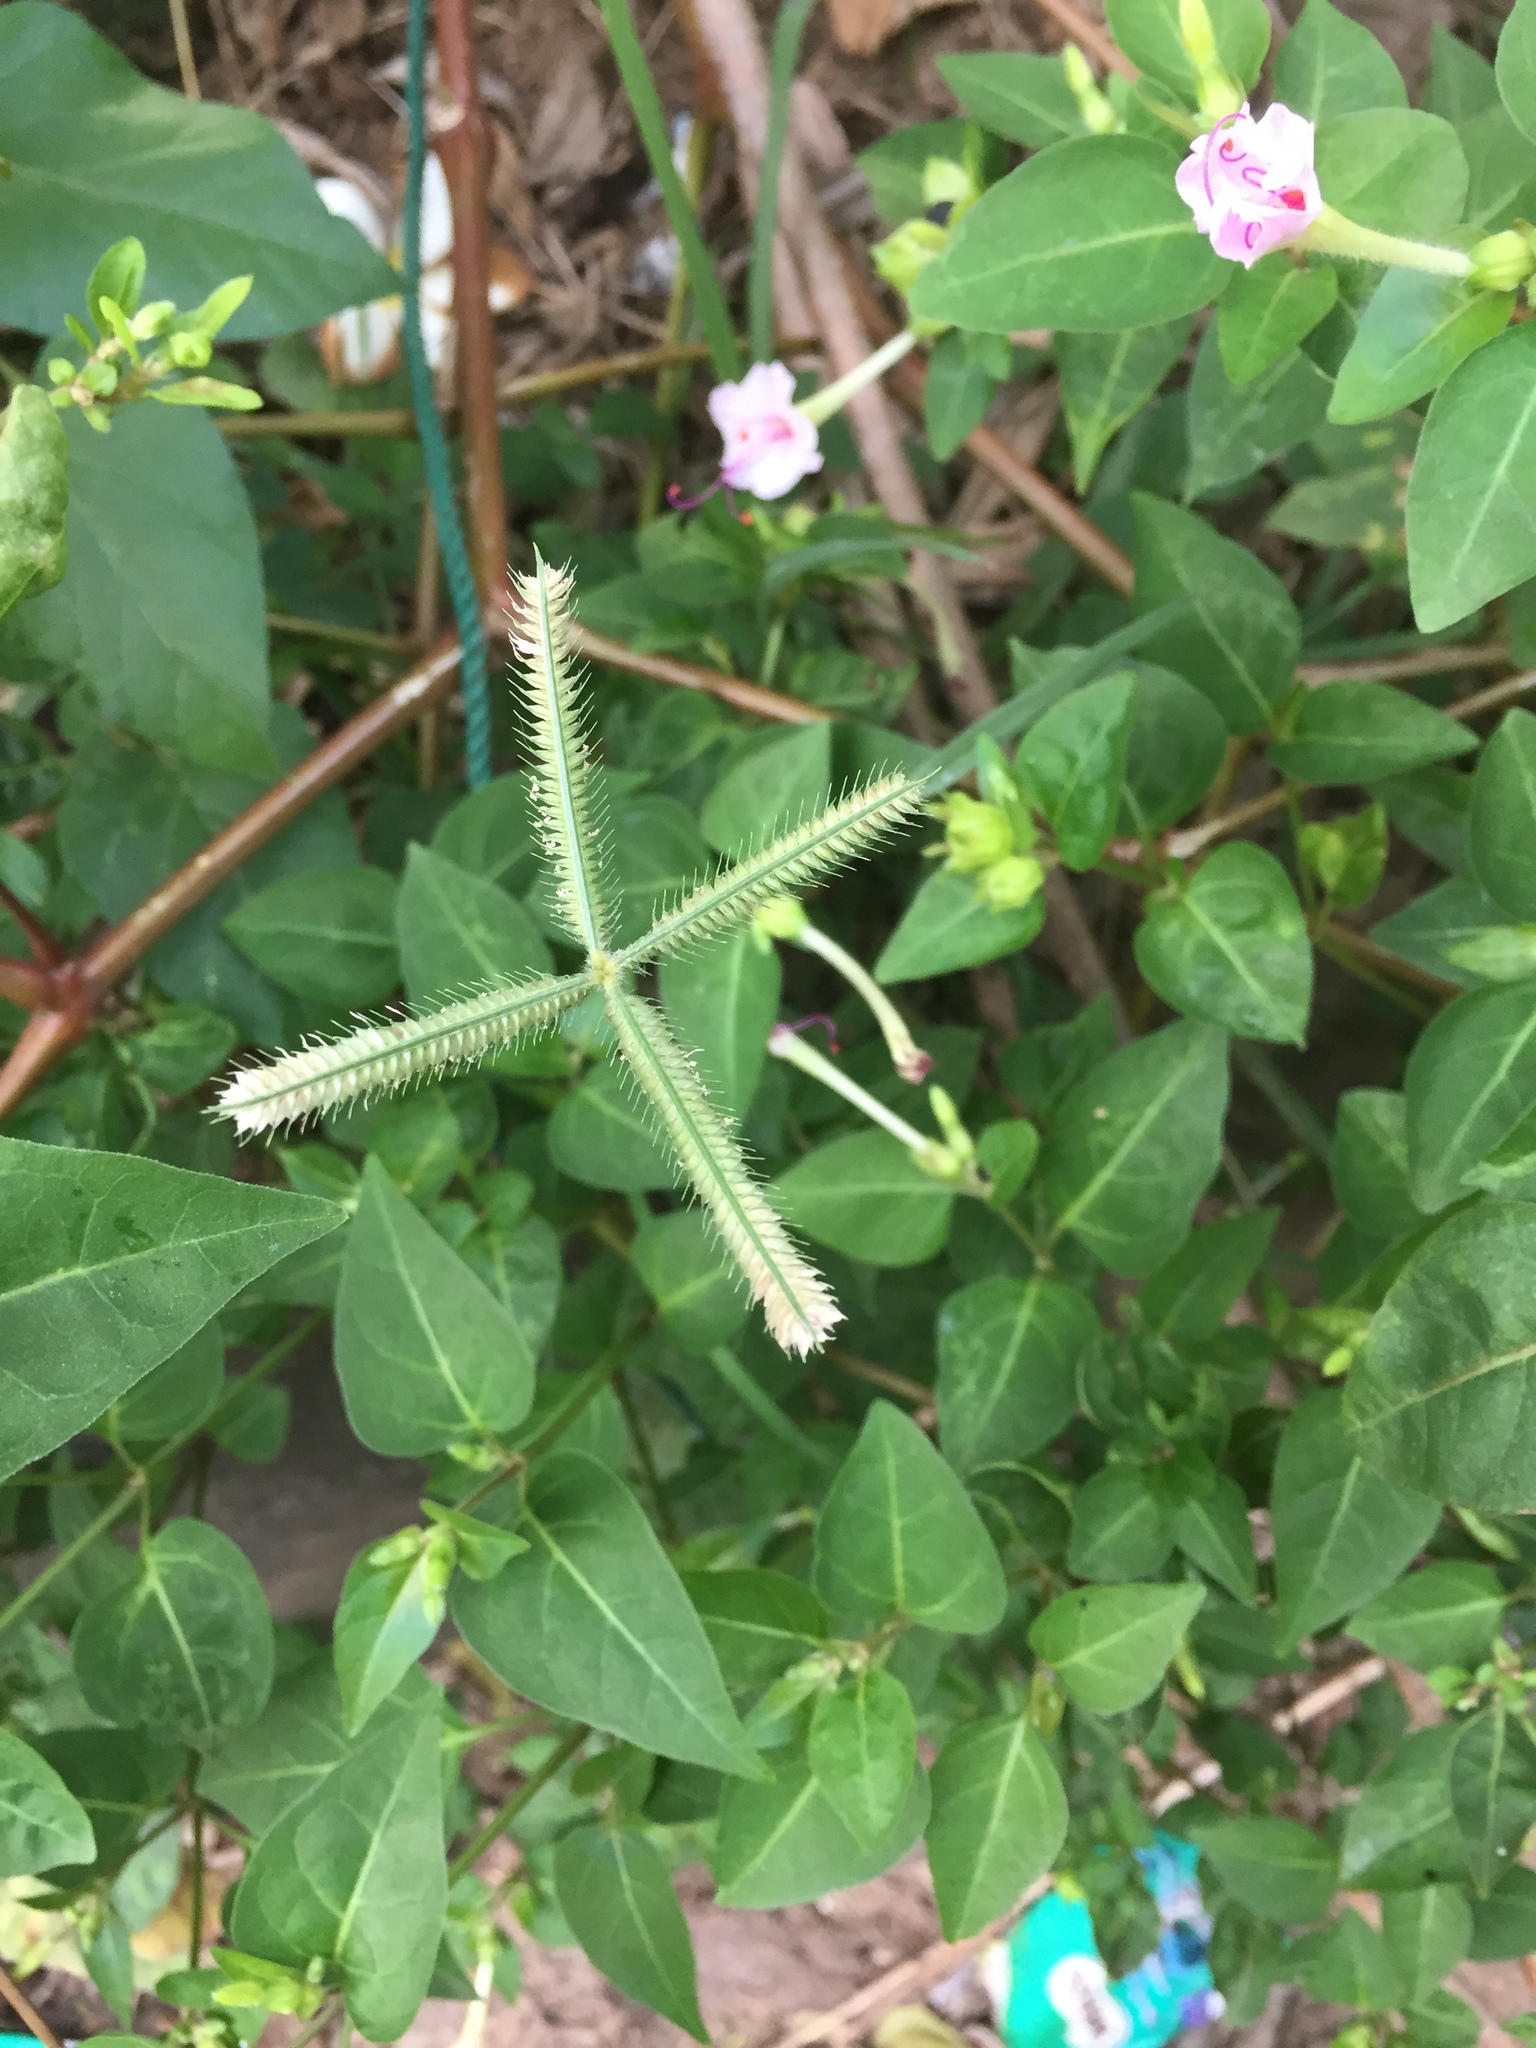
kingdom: Plantae
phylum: Tracheophyta
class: Liliopsida
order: Poales
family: Poaceae
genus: Dactyloctenium
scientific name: Dactyloctenium aegyptium
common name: Egyptian grass
